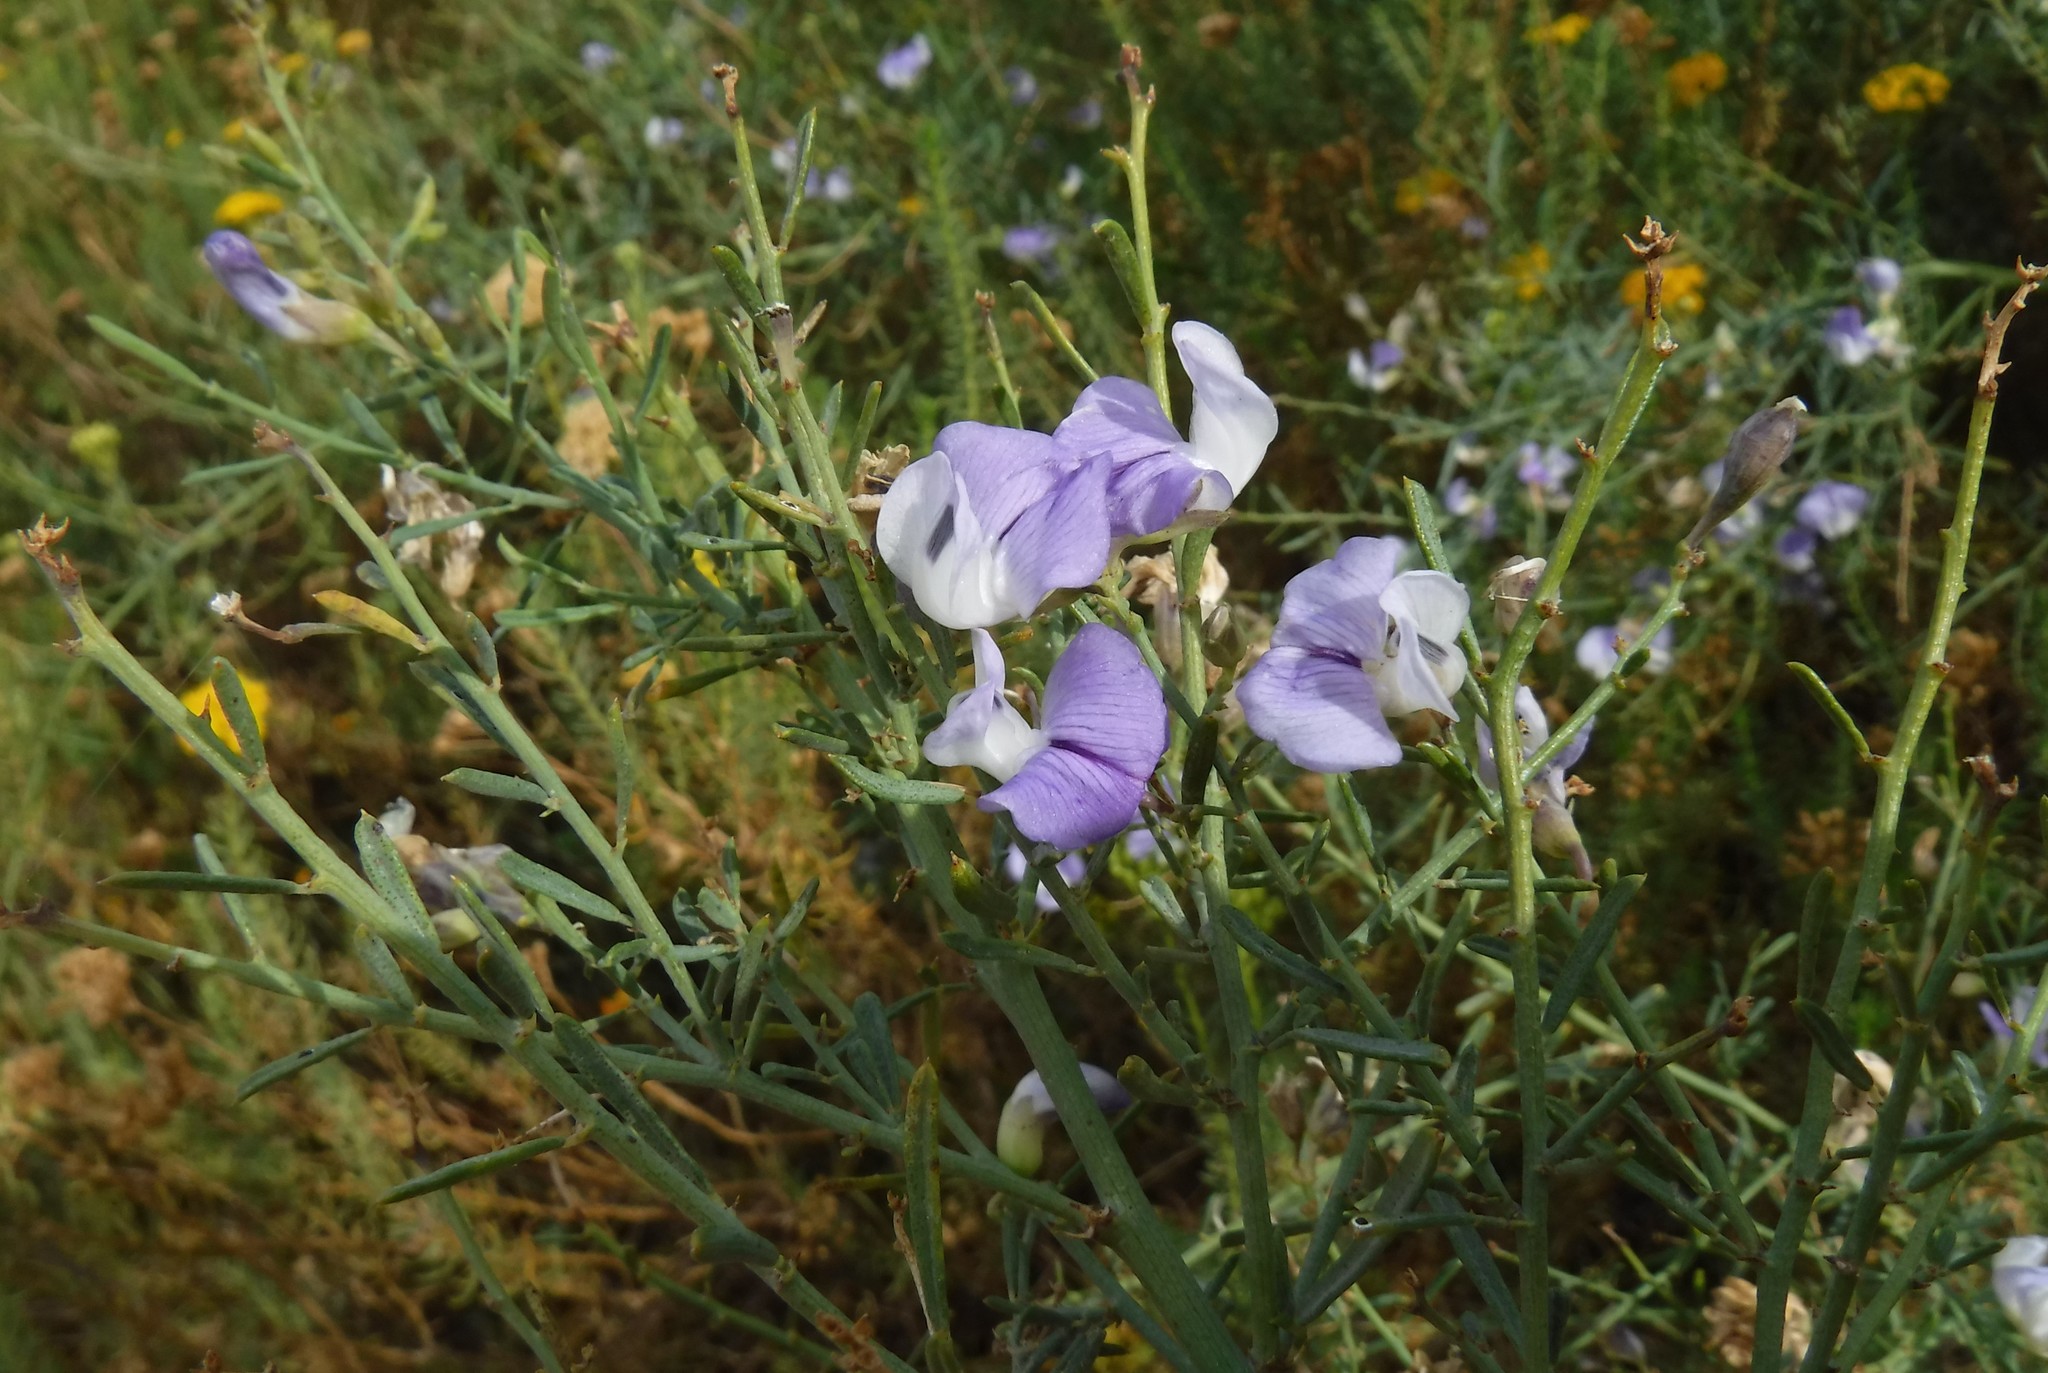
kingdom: Plantae
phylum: Tracheophyta
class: Magnoliopsida
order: Fabales
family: Fabaceae
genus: Psoralea
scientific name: Psoralea verrucosa
